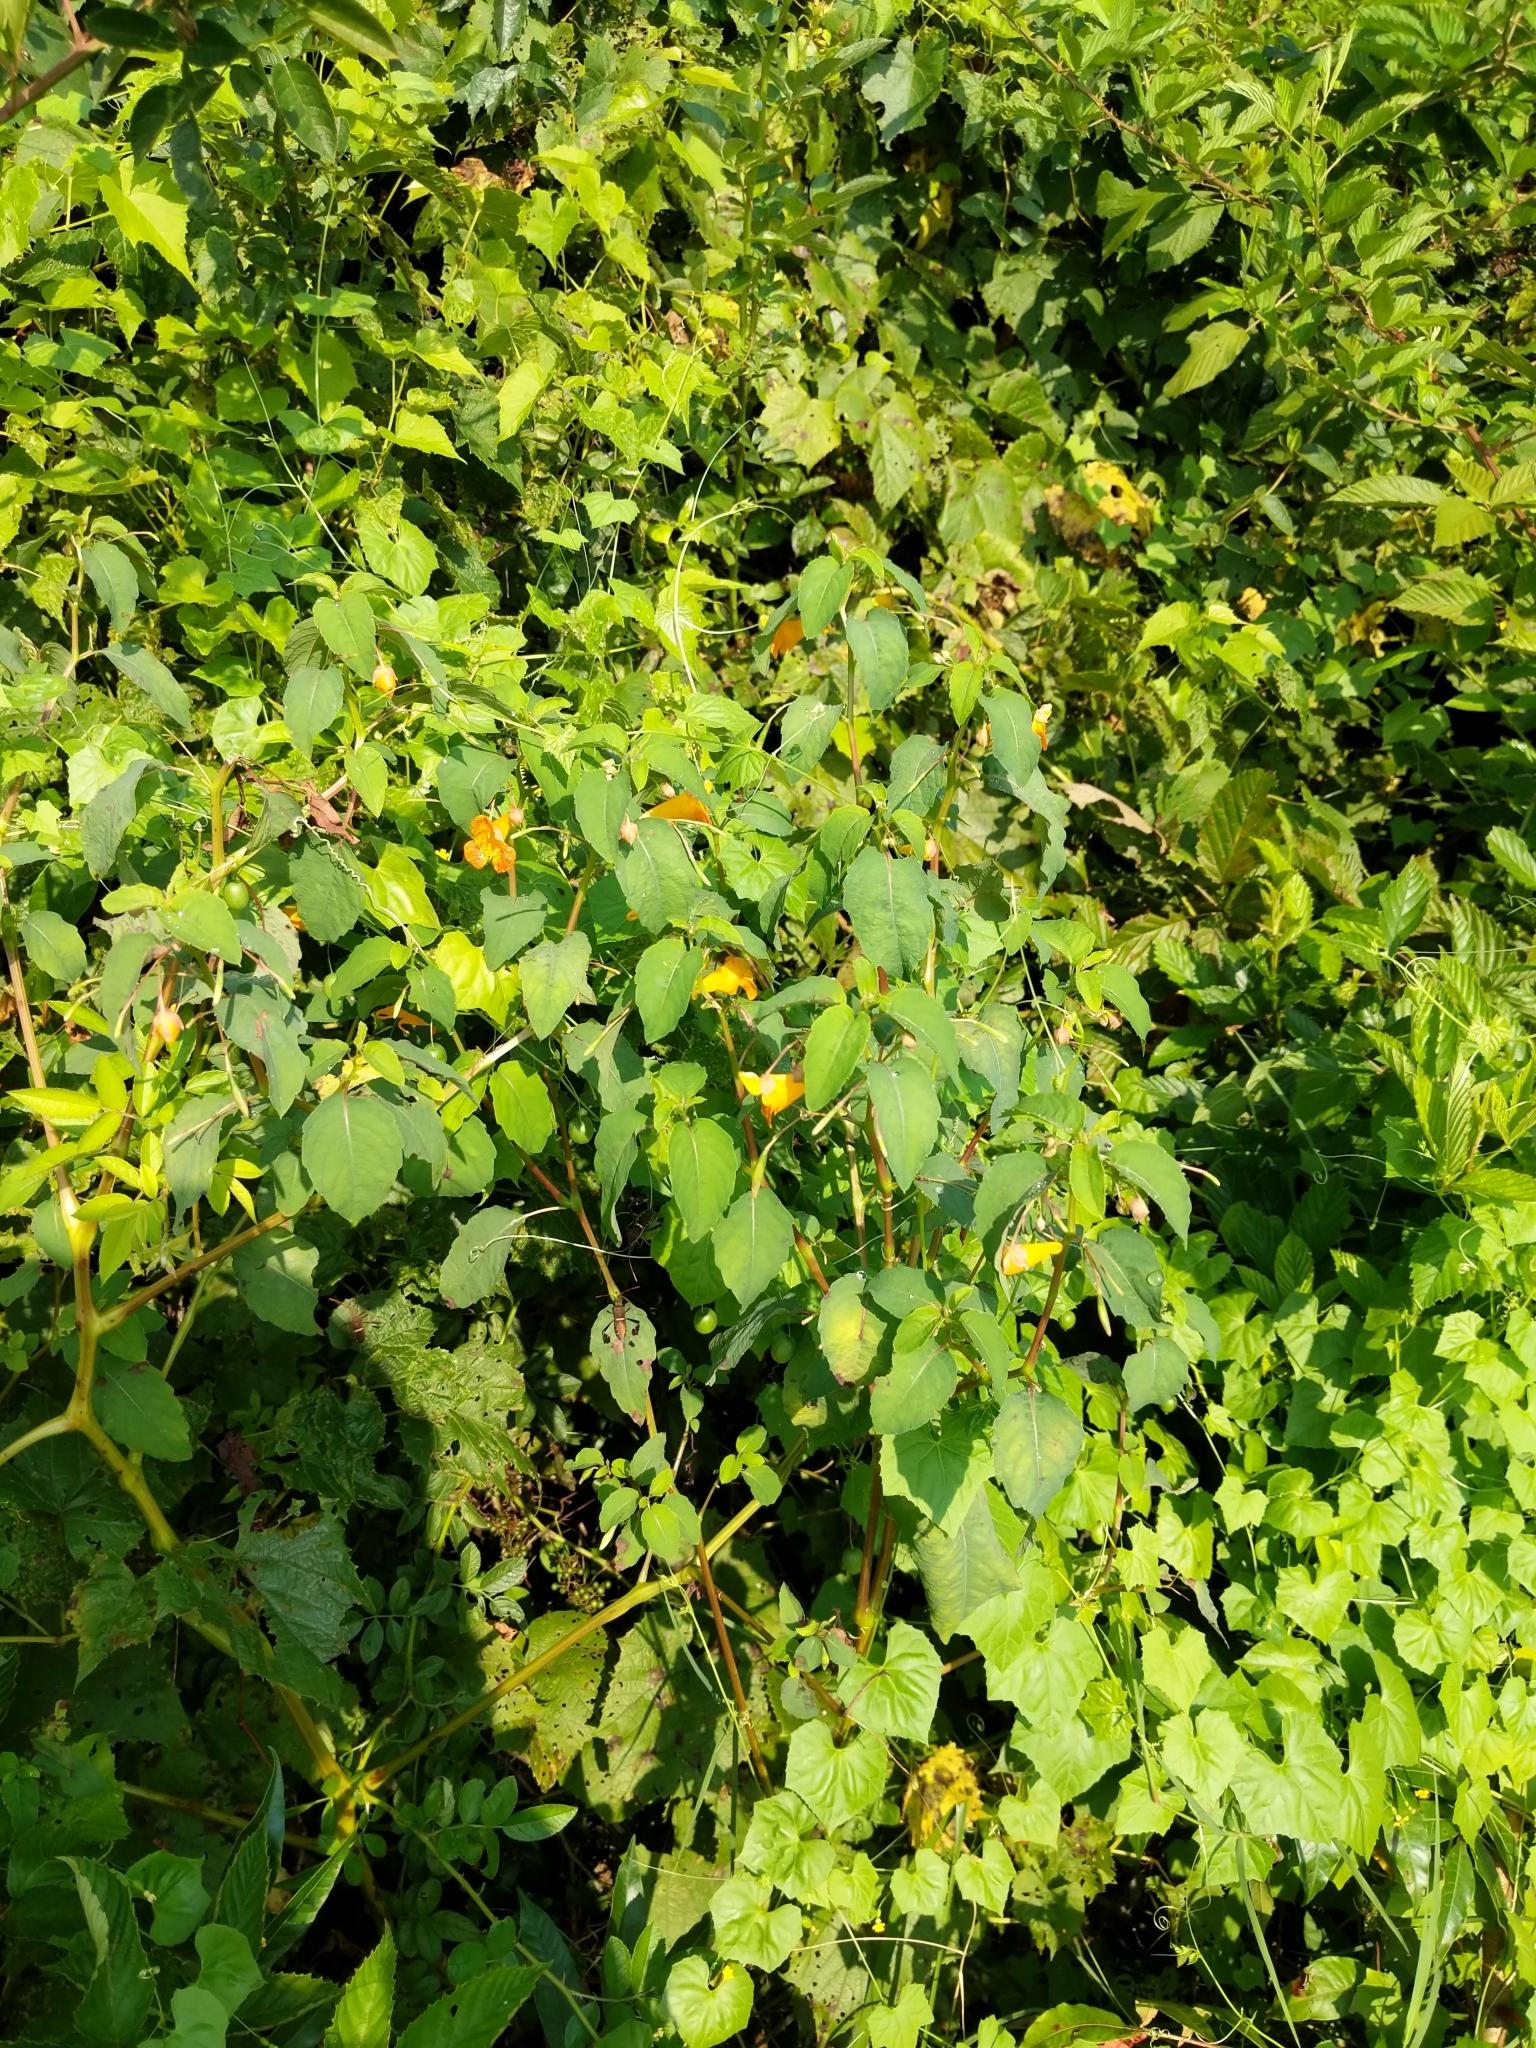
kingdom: Plantae
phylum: Tracheophyta
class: Magnoliopsida
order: Ericales
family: Balsaminaceae
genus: Impatiens
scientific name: Impatiens capensis
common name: Orange balsam
